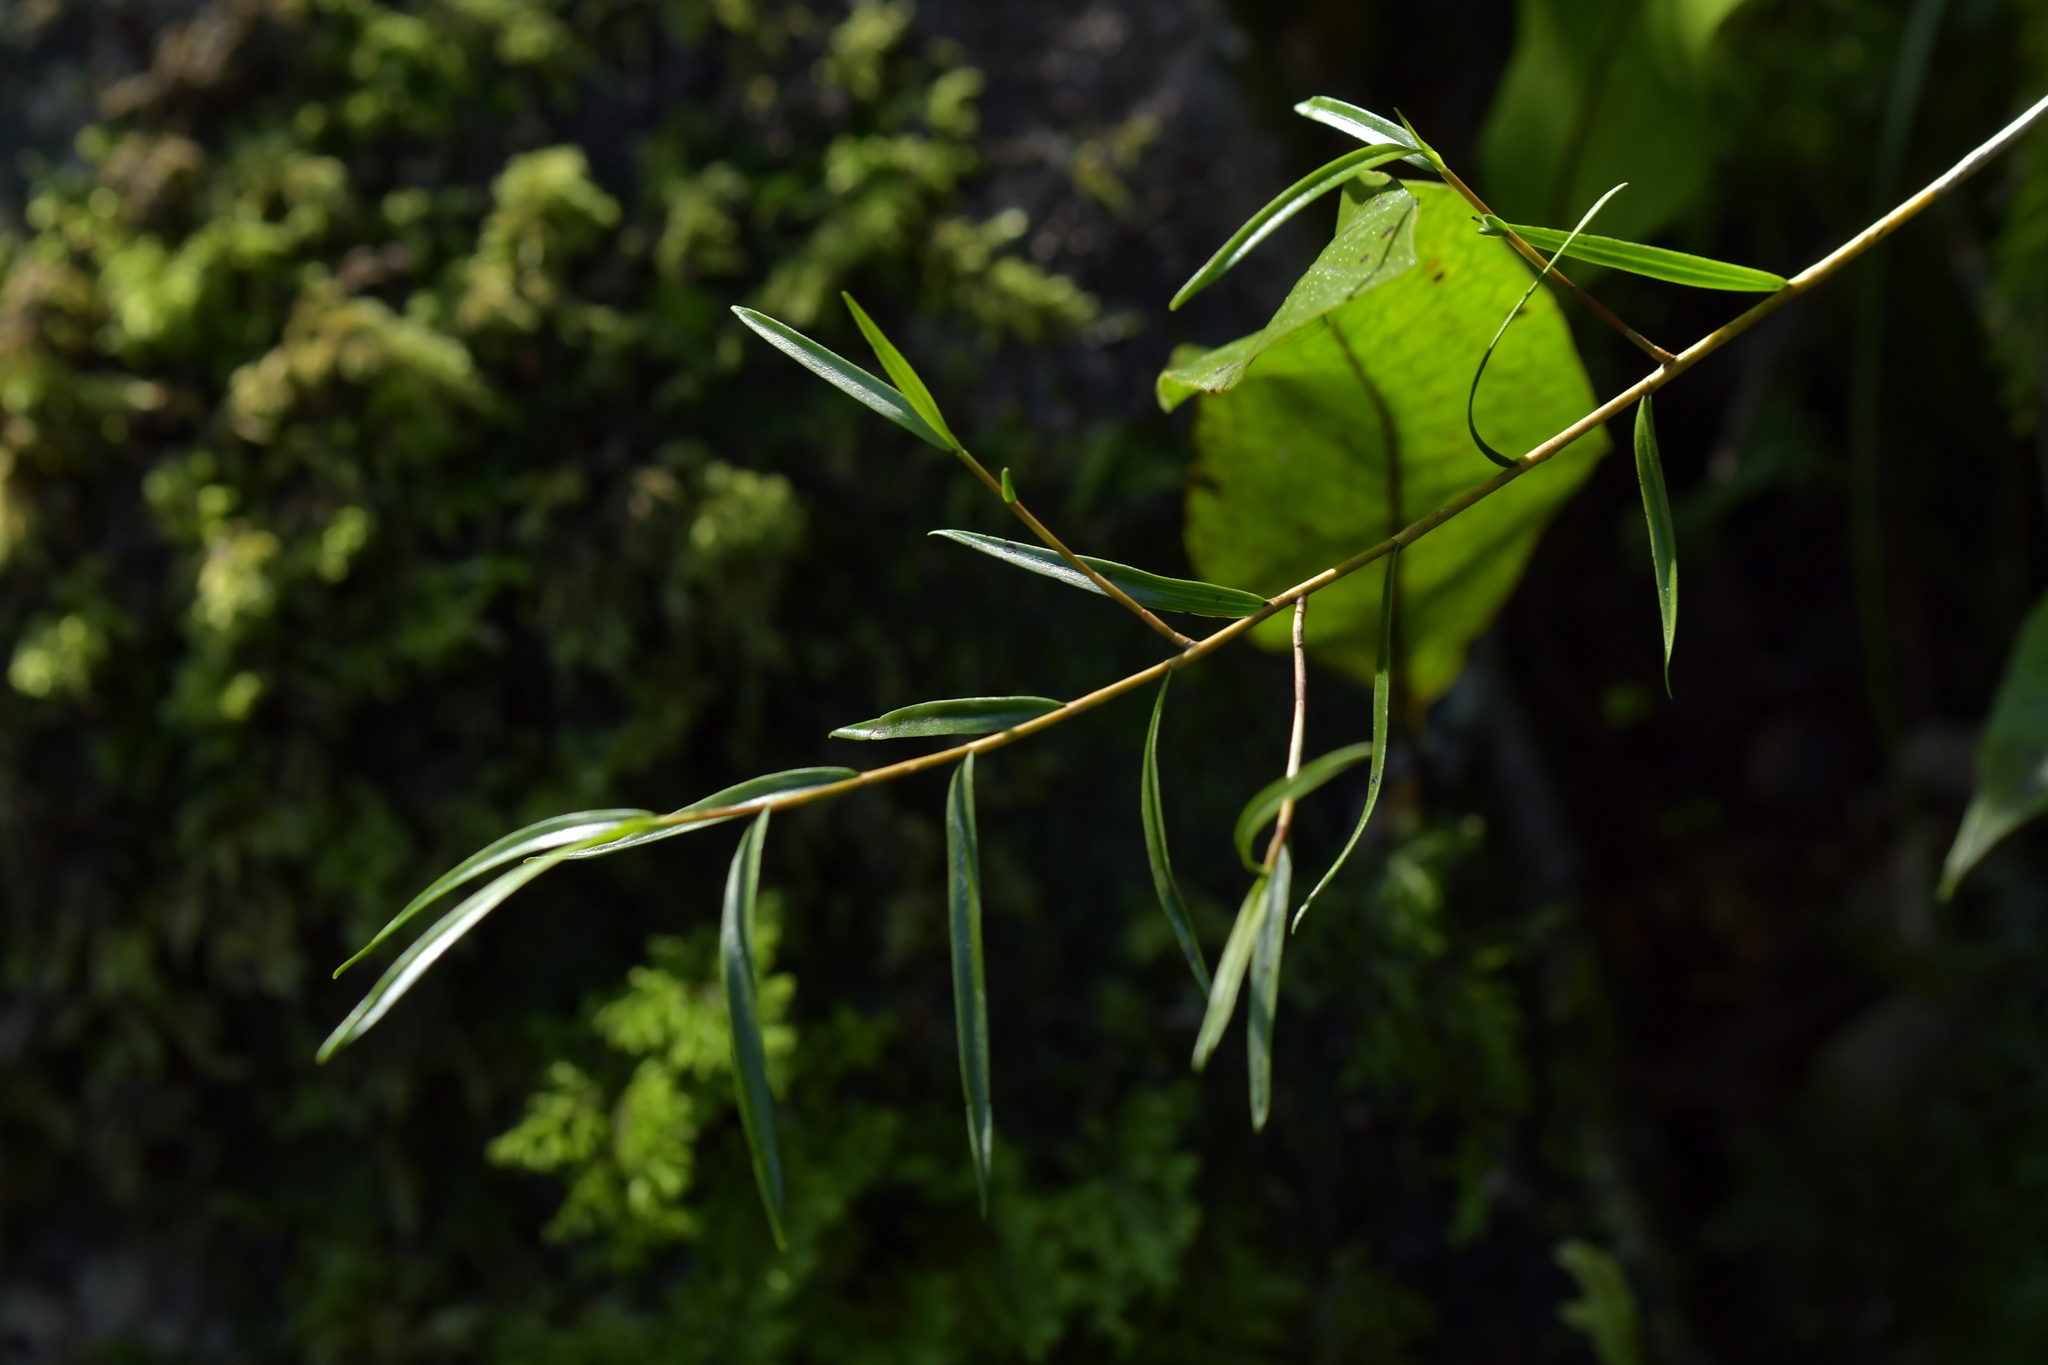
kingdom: Plantae
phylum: Tracheophyta
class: Liliopsida
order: Asparagales
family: Orchidaceae
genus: Dendrobium
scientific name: Dendrobium cunninghamii
